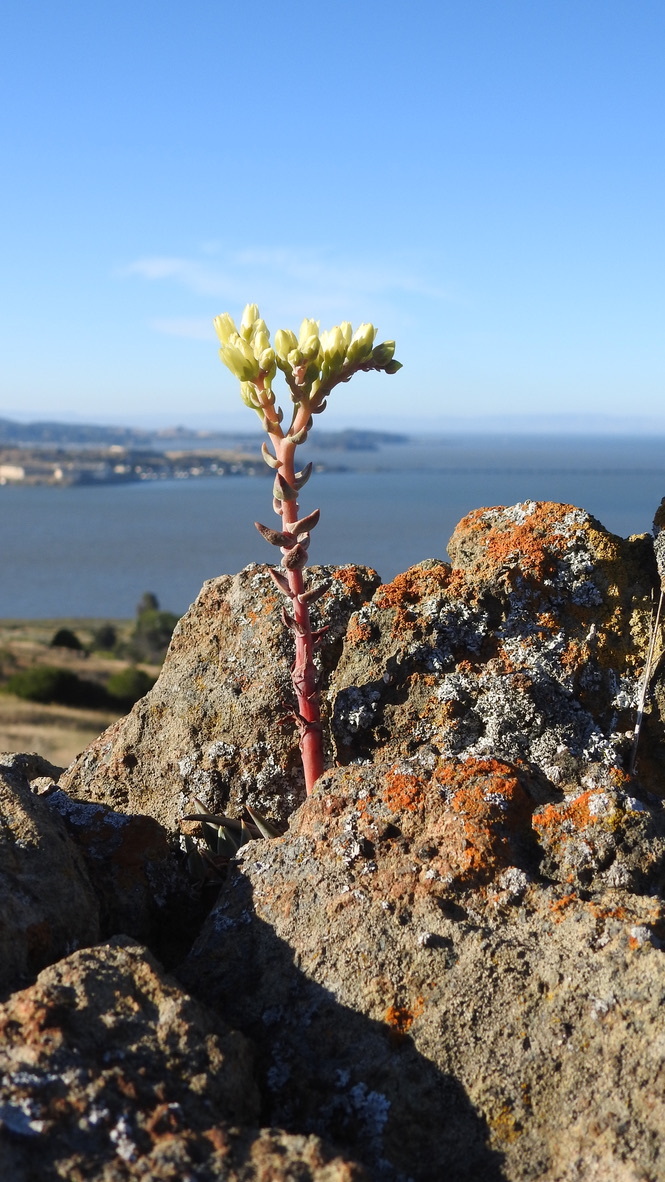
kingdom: Plantae
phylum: Tracheophyta
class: Magnoliopsida
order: Saxifragales
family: Crassulaceae
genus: Dudleya
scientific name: Dudleya farinosa
